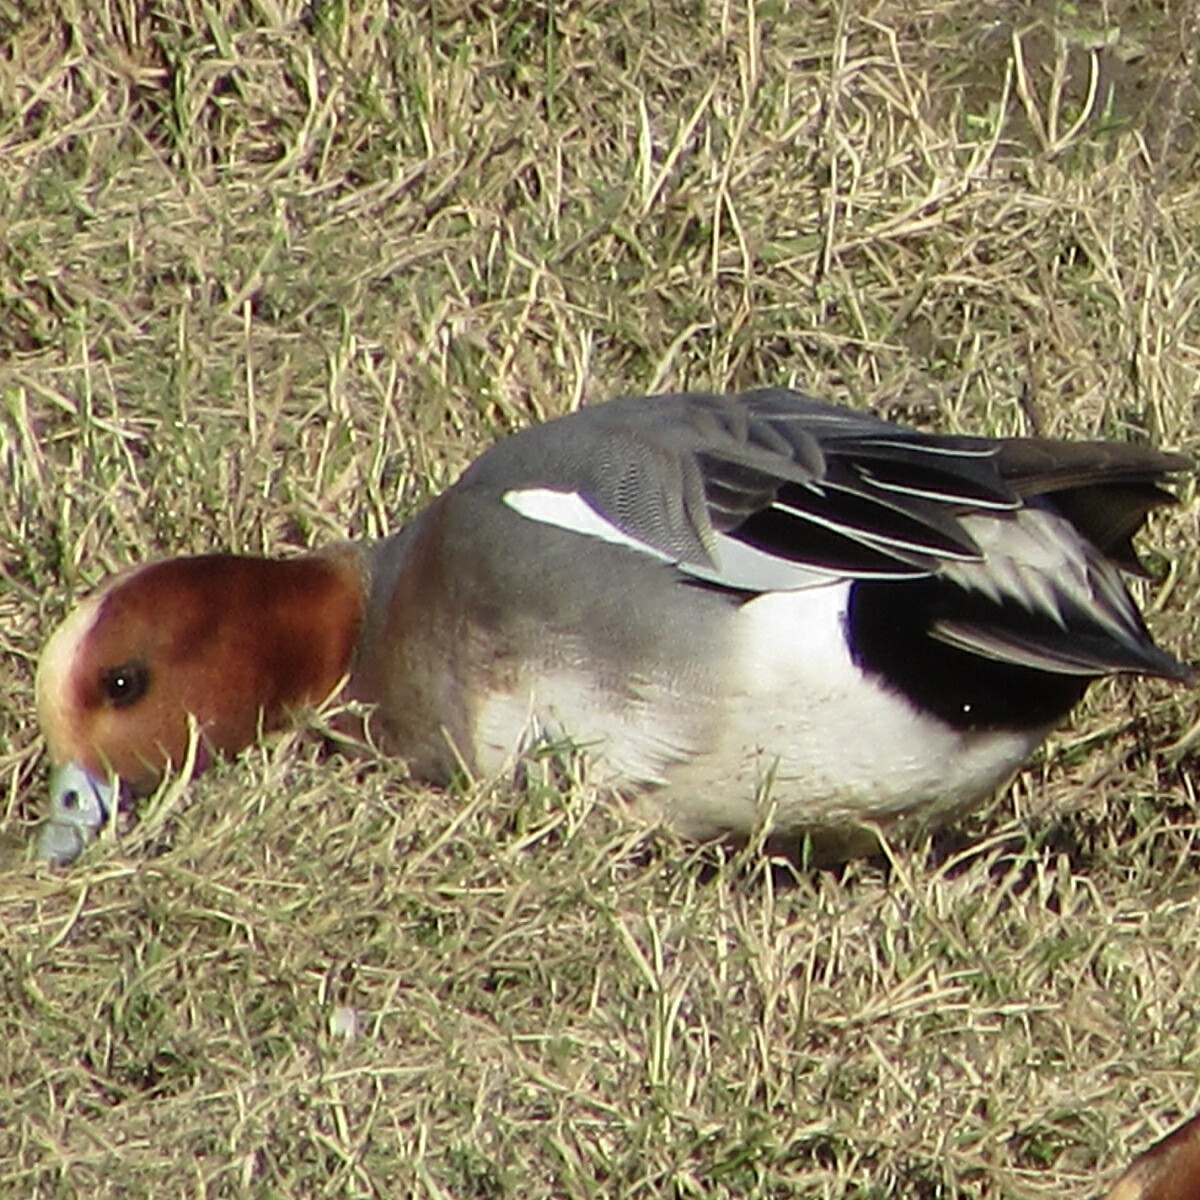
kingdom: Animalia
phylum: Chordata
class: Aves
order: Anseriformes
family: Anatidae
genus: Mareca
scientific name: Mareca penelope
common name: Eurasian wigeon
